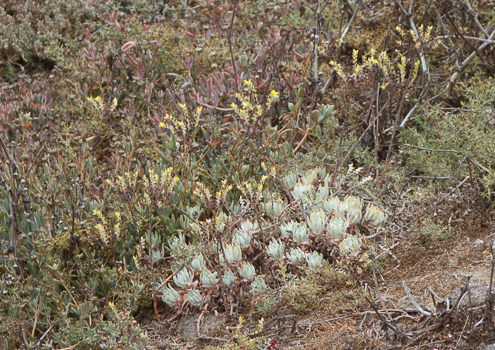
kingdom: Plantae
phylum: Tracheophyta
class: Magnoliopsida
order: Saxifragales
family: Crassulaceae
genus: Dudleya
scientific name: Dudleya caespitosa
